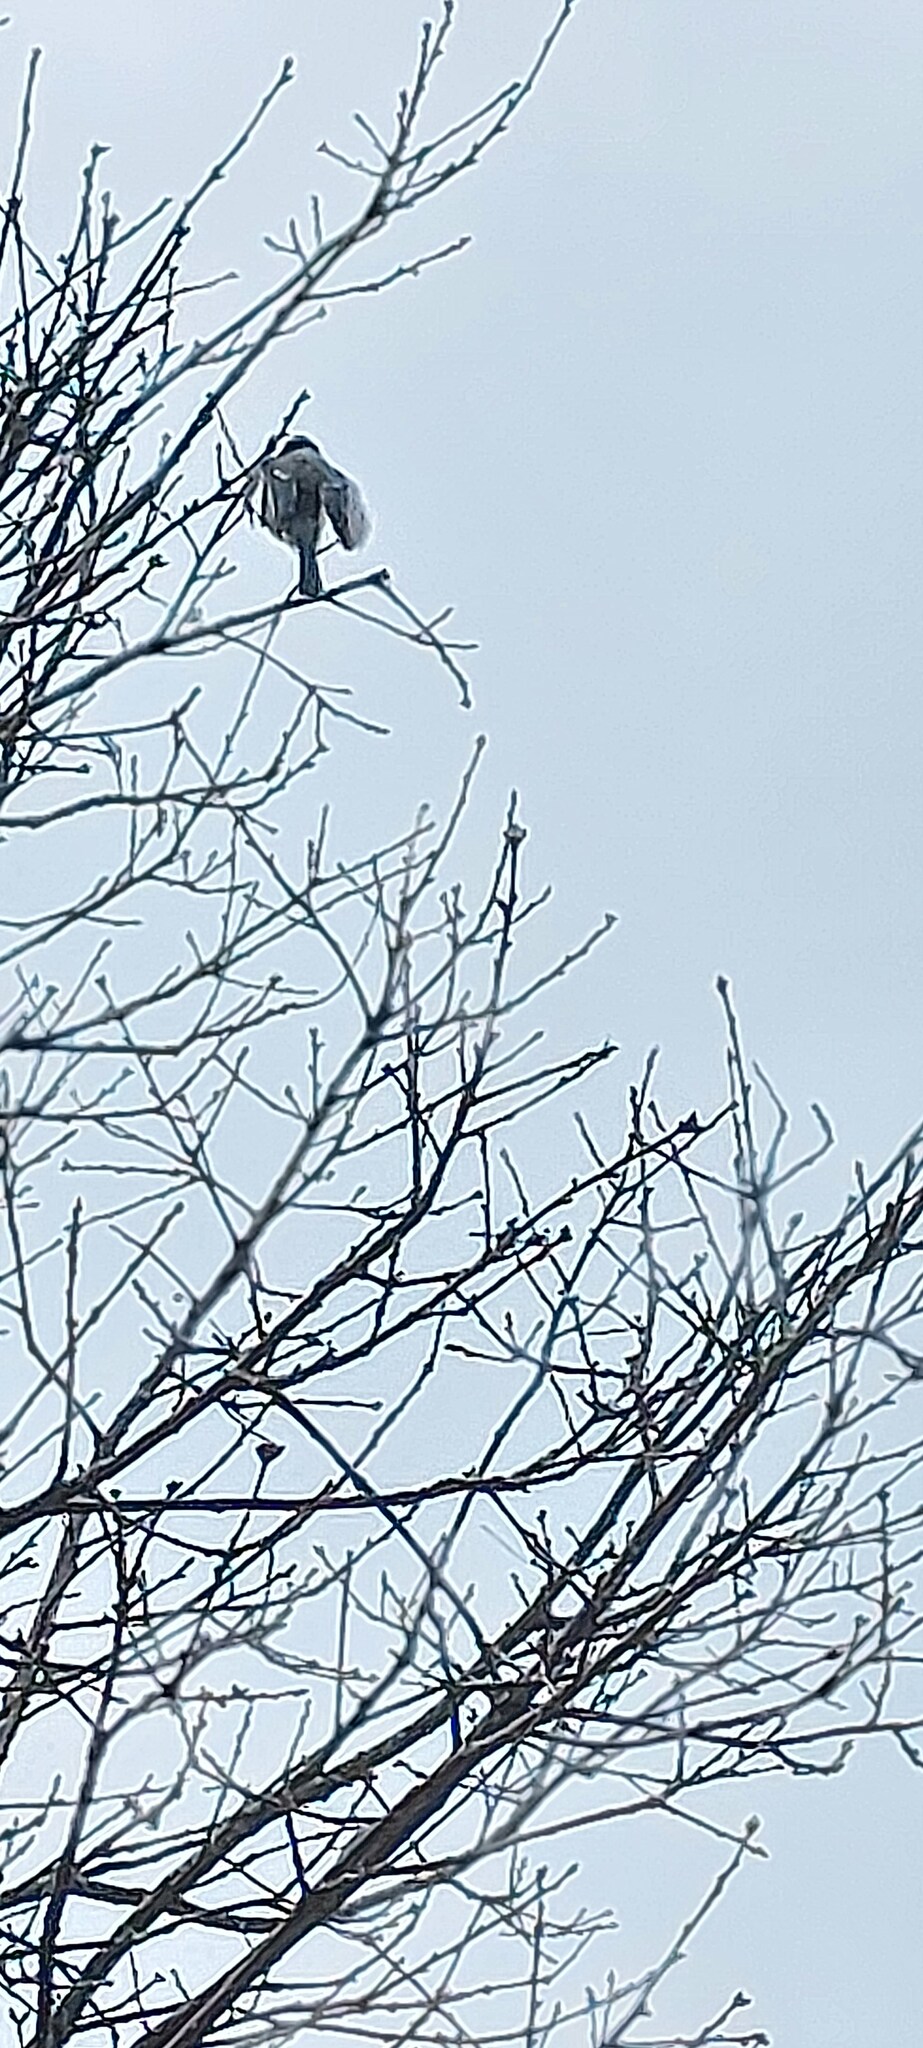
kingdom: Animalia
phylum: Chordata
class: Aves
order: Passeriformes
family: Paridae
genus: Cyanistes
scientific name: Cyanistes caeruleus
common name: Eurasian blue tit
